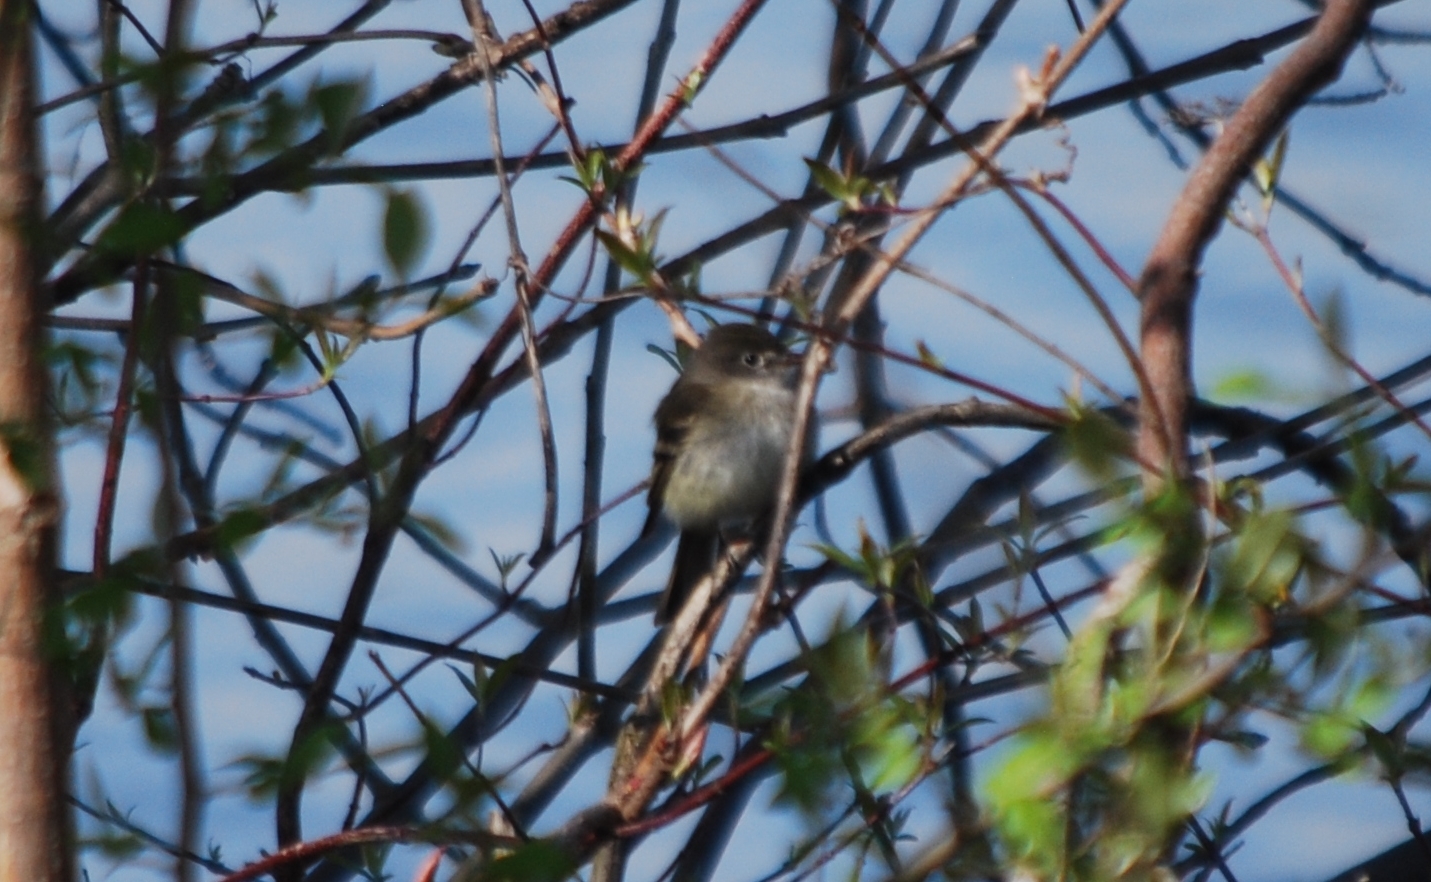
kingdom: Animalia
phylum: Chordata
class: Aves
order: Passeriformes
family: Tyrannidae
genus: Empidonax
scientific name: Empidonax minimus
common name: Least flycatcher
